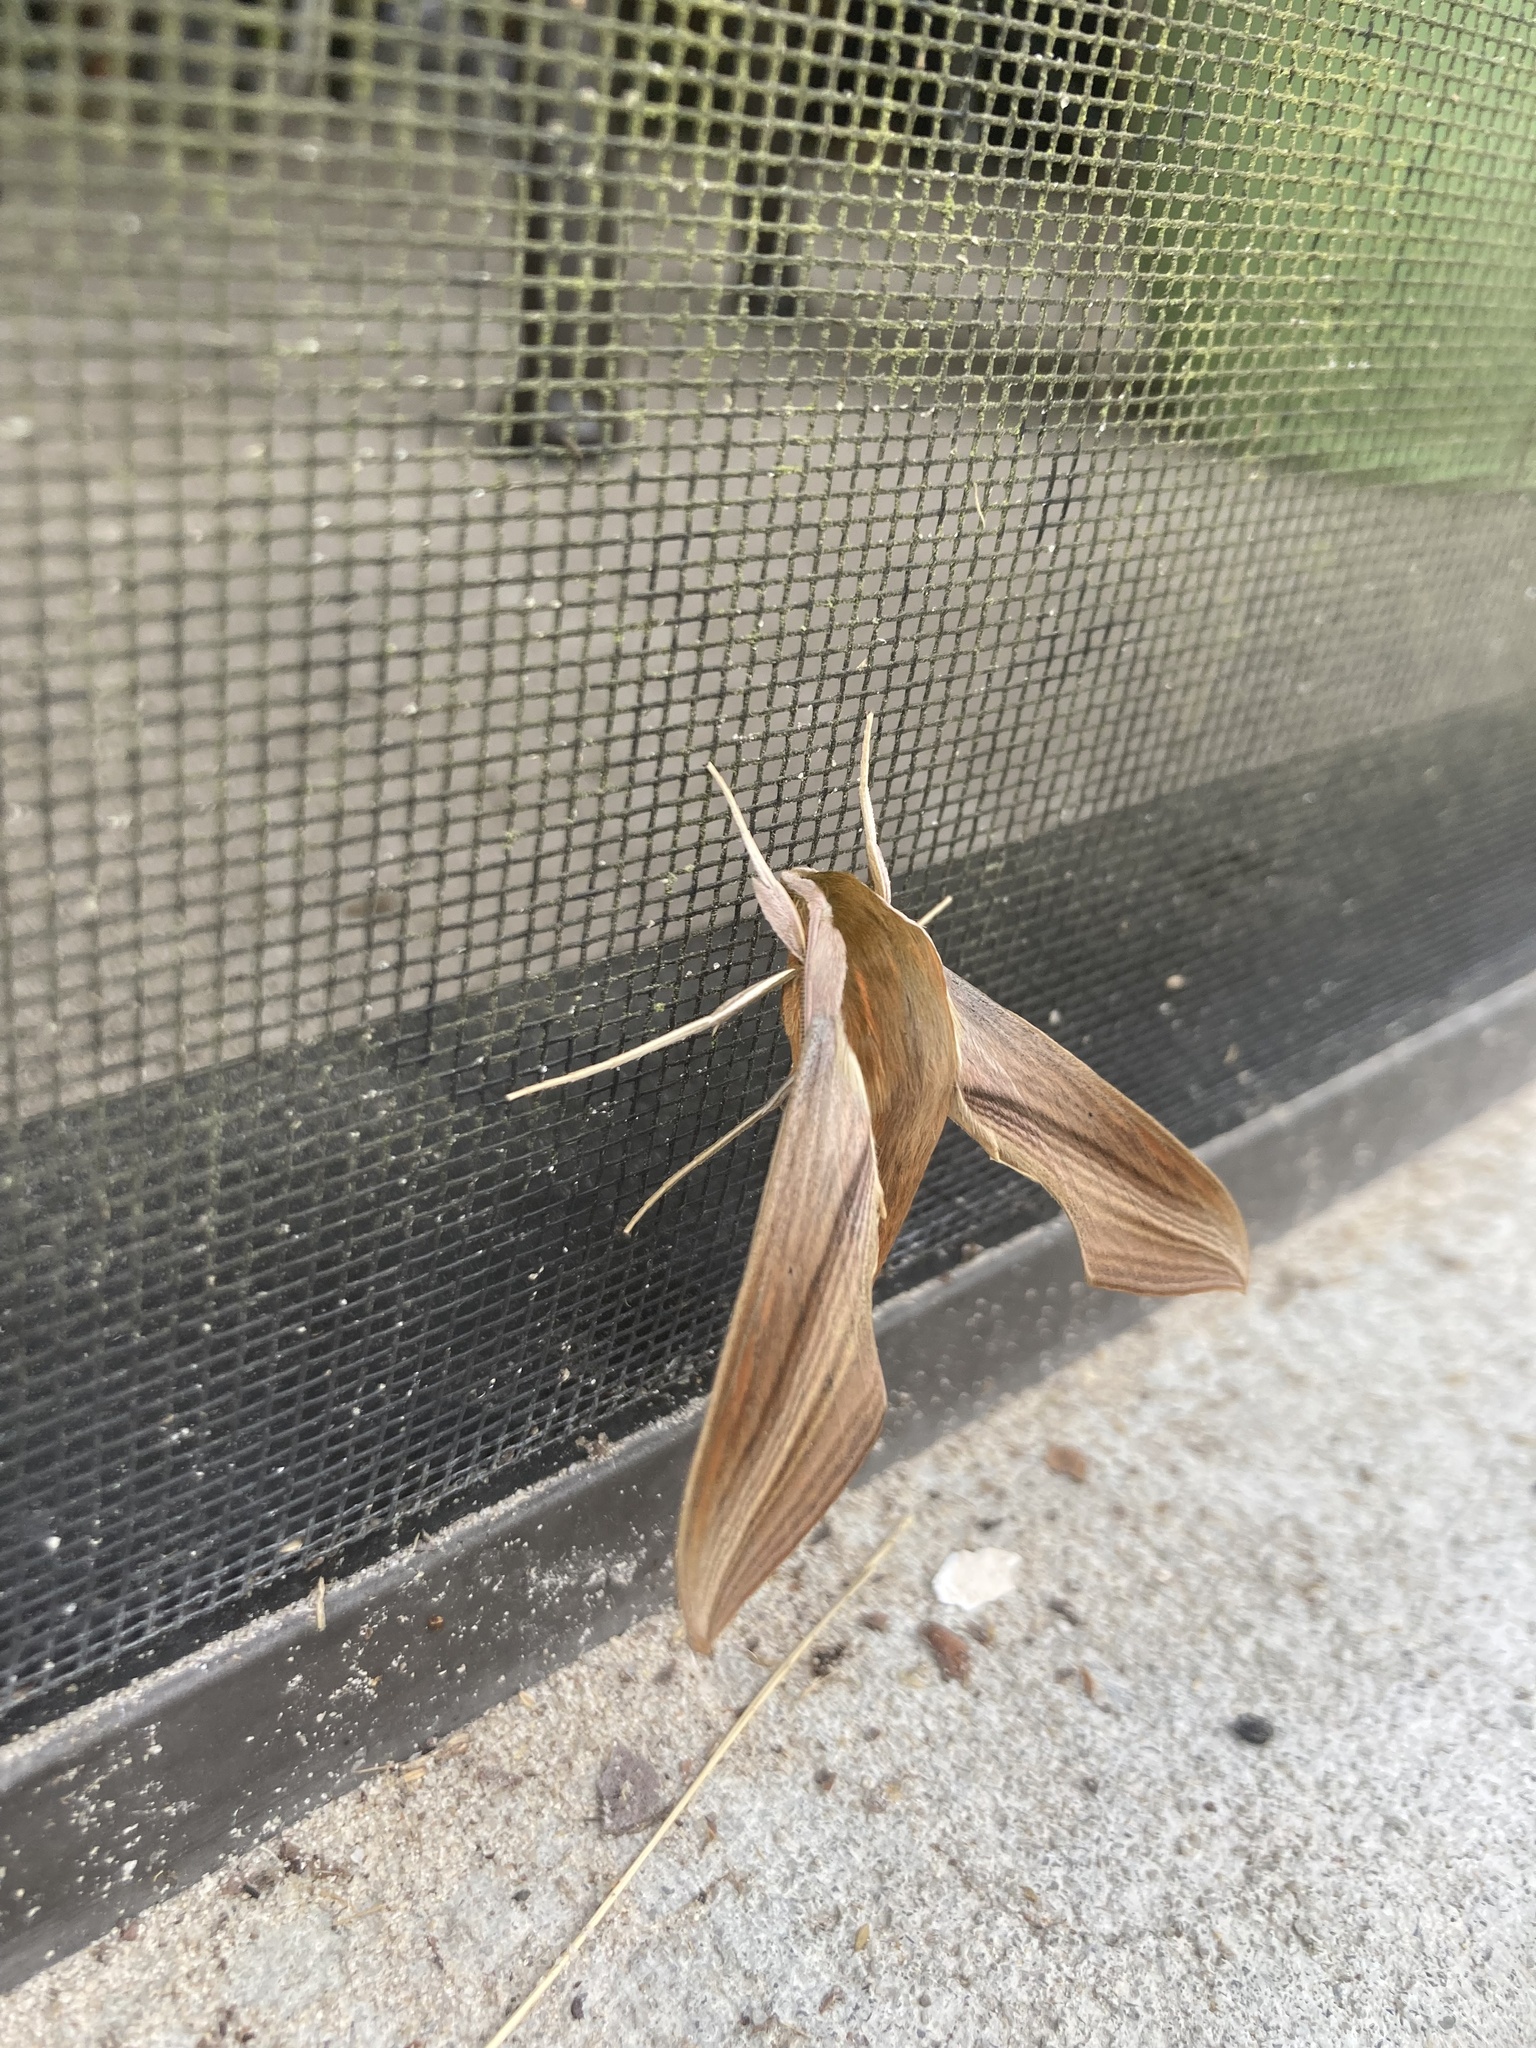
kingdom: Animalia
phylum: Arthropoda
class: Insecta
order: Lepidoptera
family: Sphingidae
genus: Xylophanes
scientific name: Xylophanes tersa
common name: Tersa sphinx
